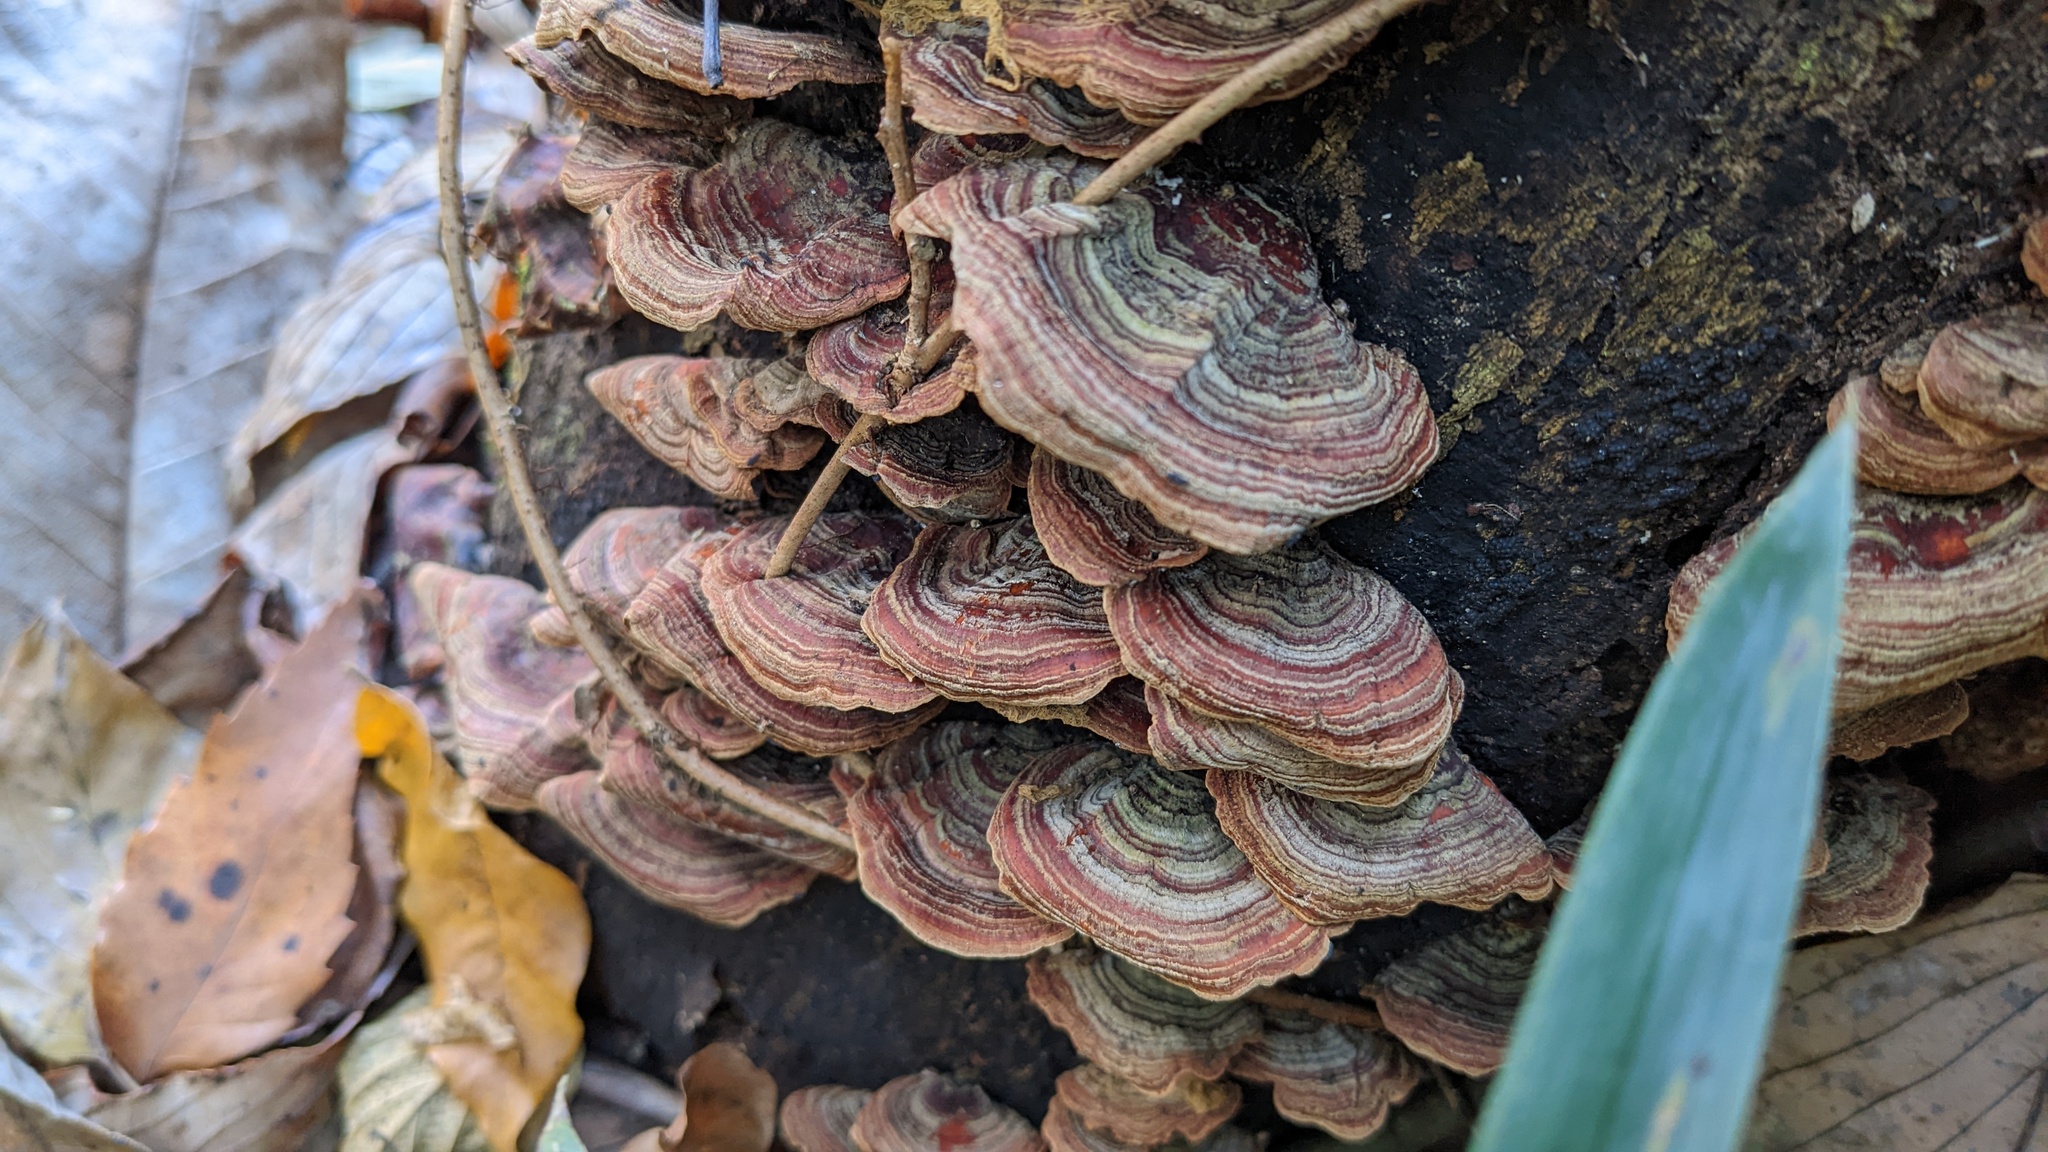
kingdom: Fungi
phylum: Basidiomycota
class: Agaricomycetes
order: Russulales
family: Stereaceae
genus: Stereum
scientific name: Stereum ostrea
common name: False turkeytail
